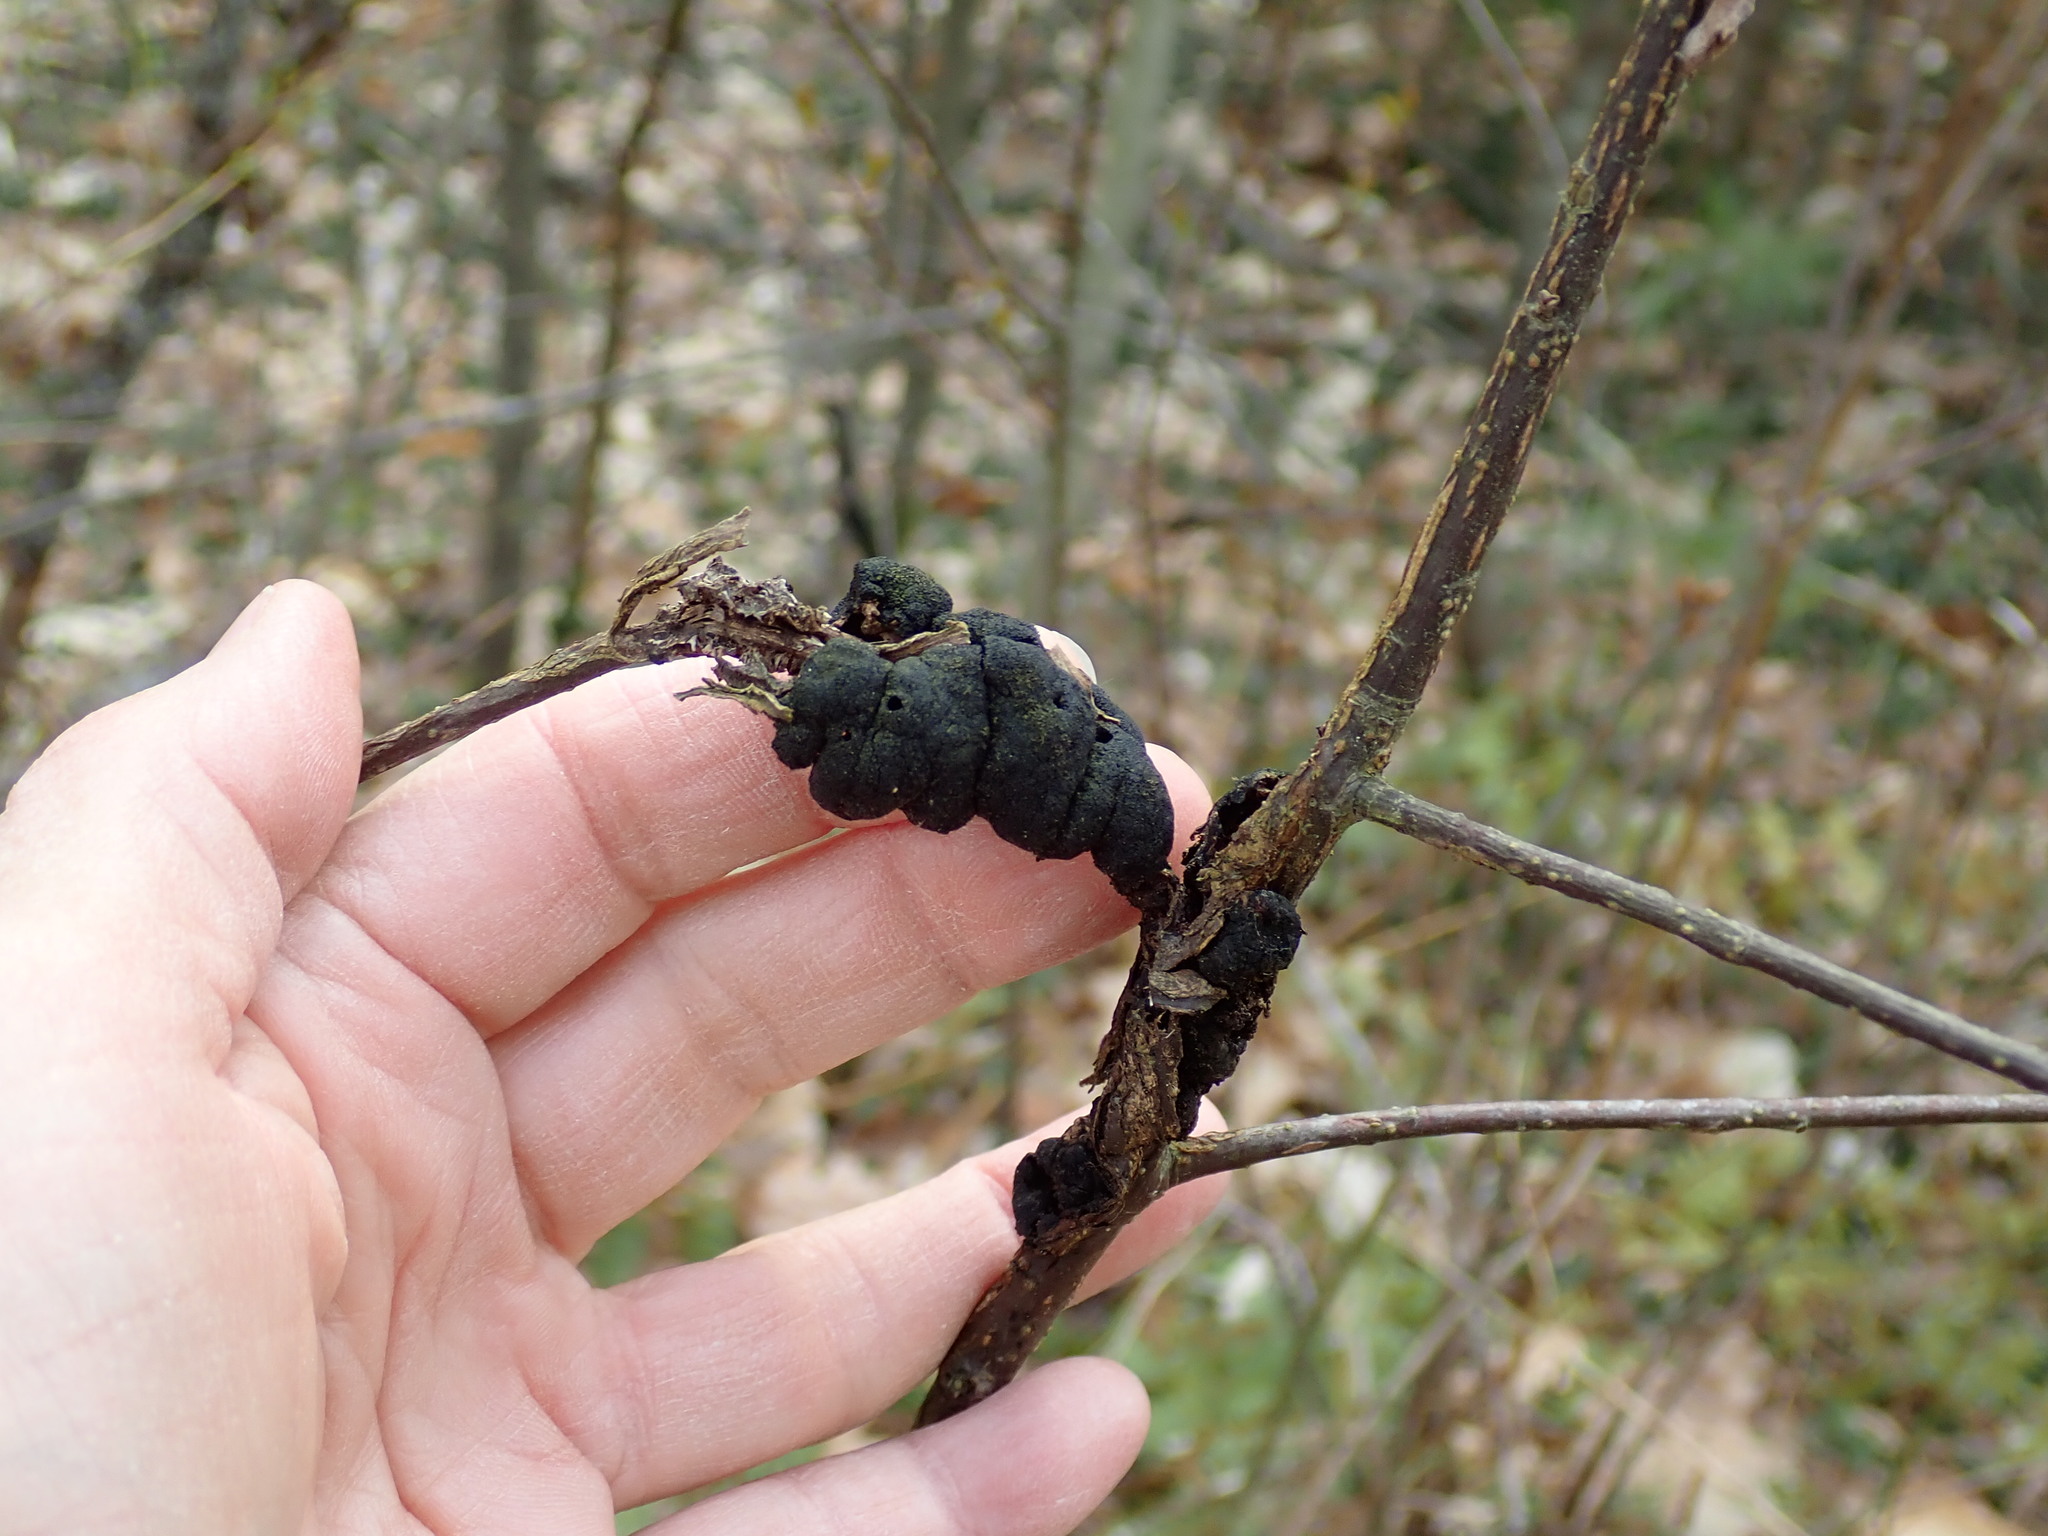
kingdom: Fungi
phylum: Ascomycota
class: Dothideomycetes
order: Venturiales
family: Venturiaceae
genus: Apiosporina
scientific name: Apiosporina morbosa
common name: Black knot
